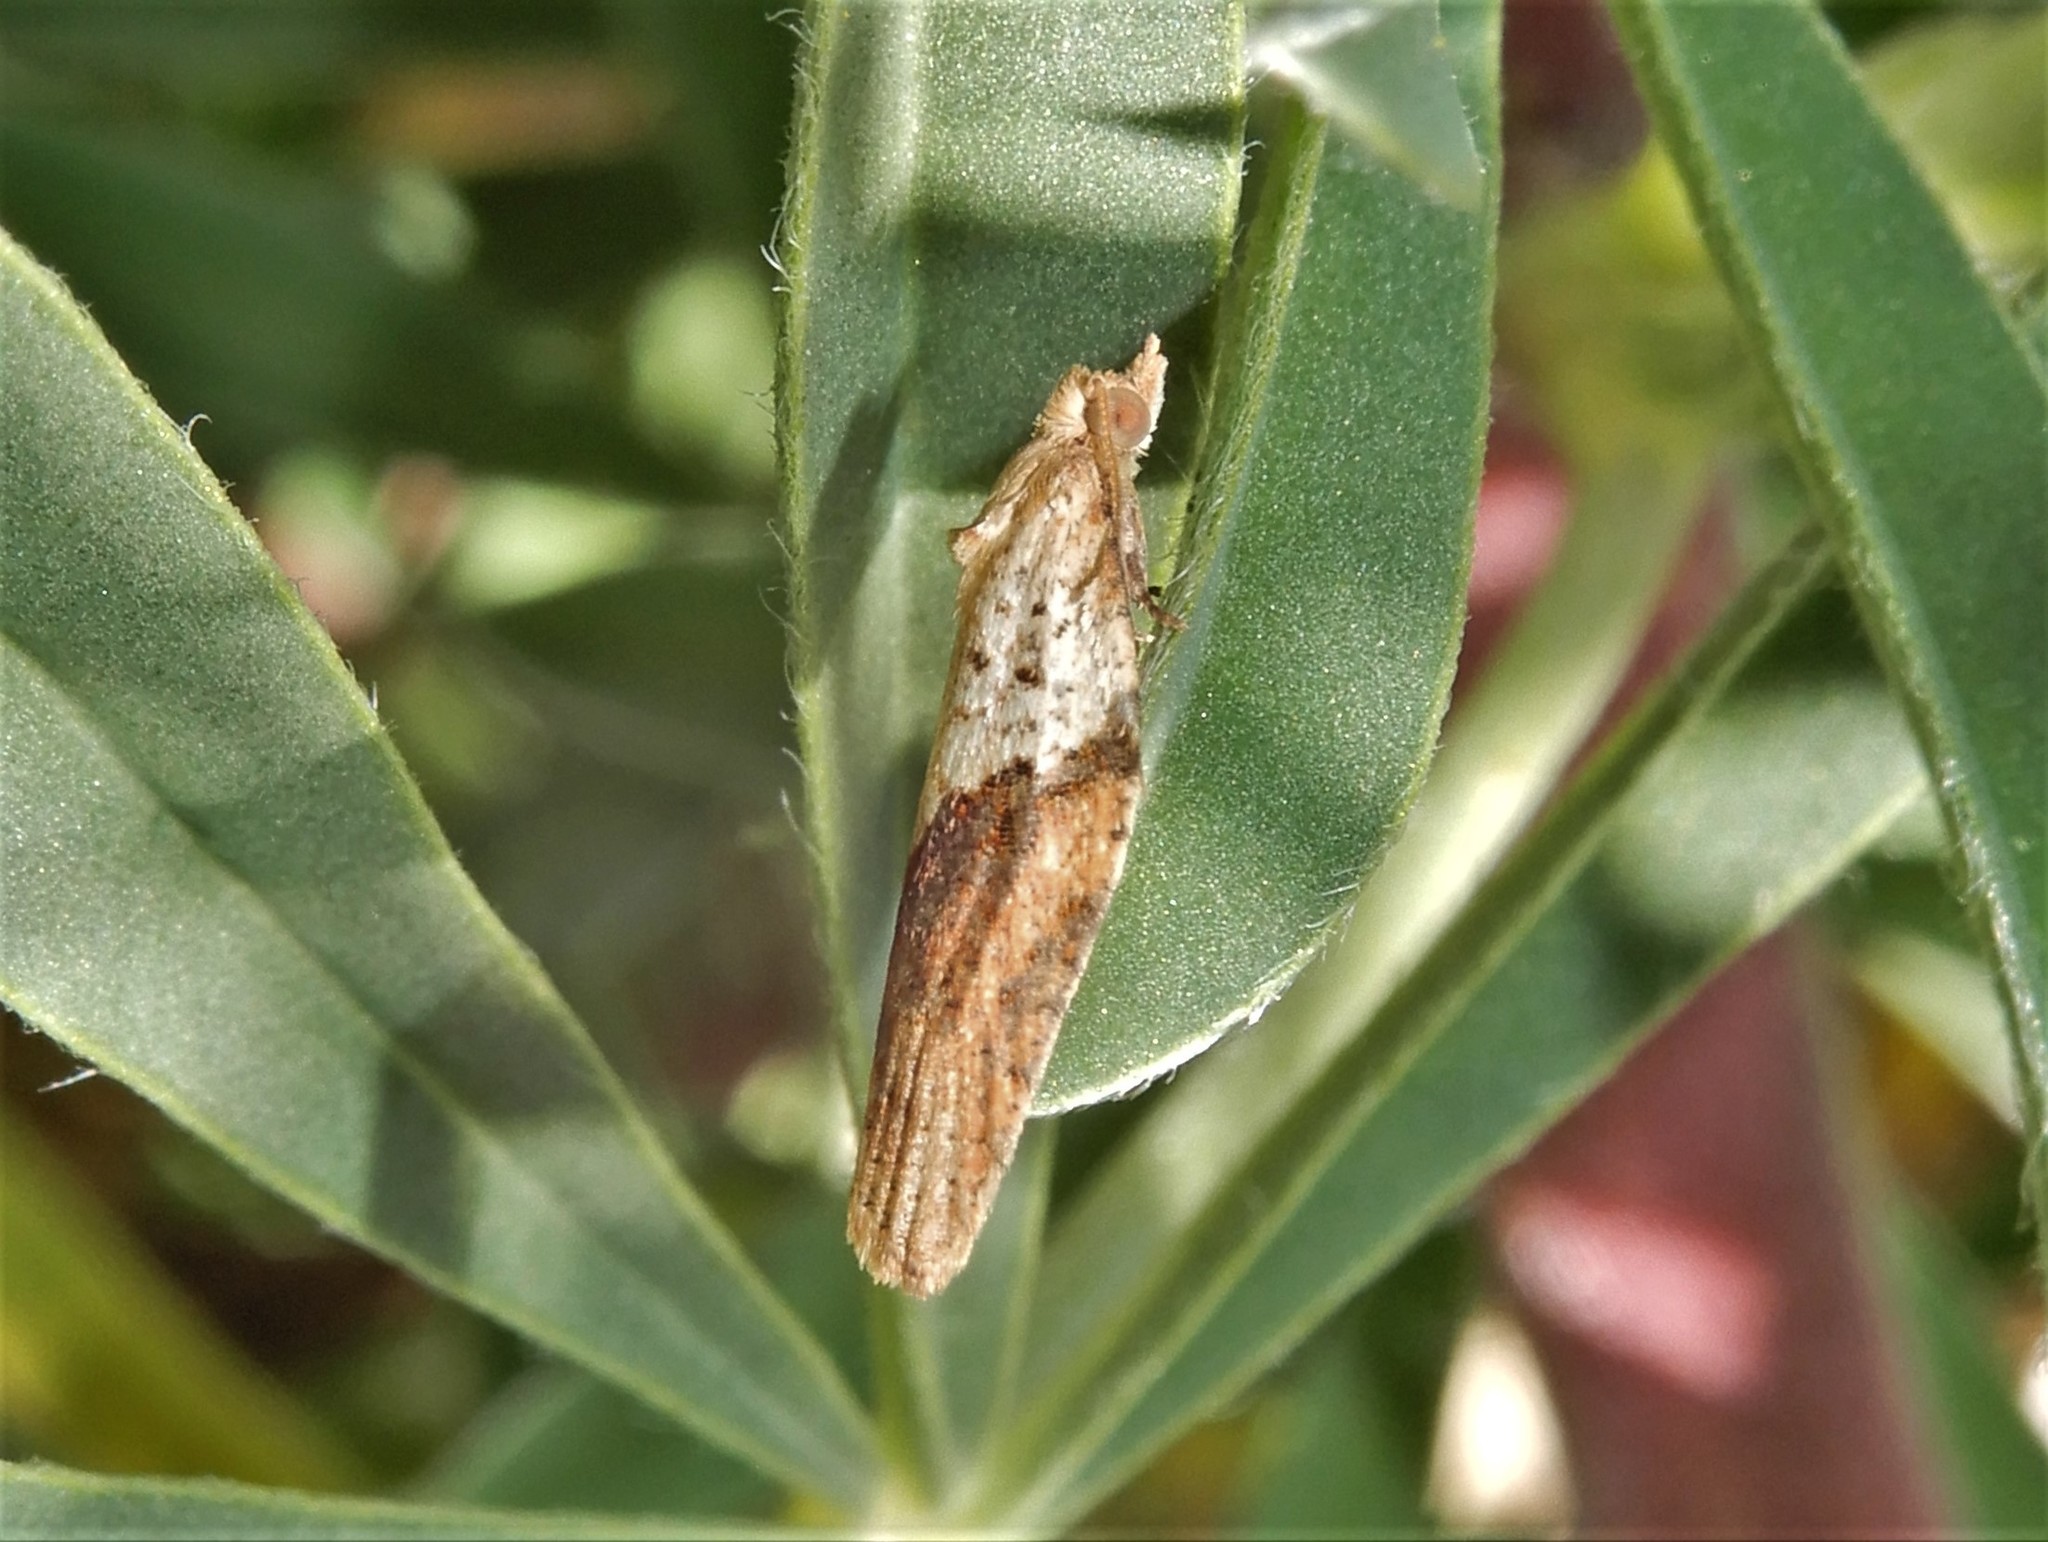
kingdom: Animalia
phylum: Arthropoda
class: Insecta
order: Lepidoptera
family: Tortricidae
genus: Epiphyas
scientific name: Epiphyas postvittana
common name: Light brown apple moth
